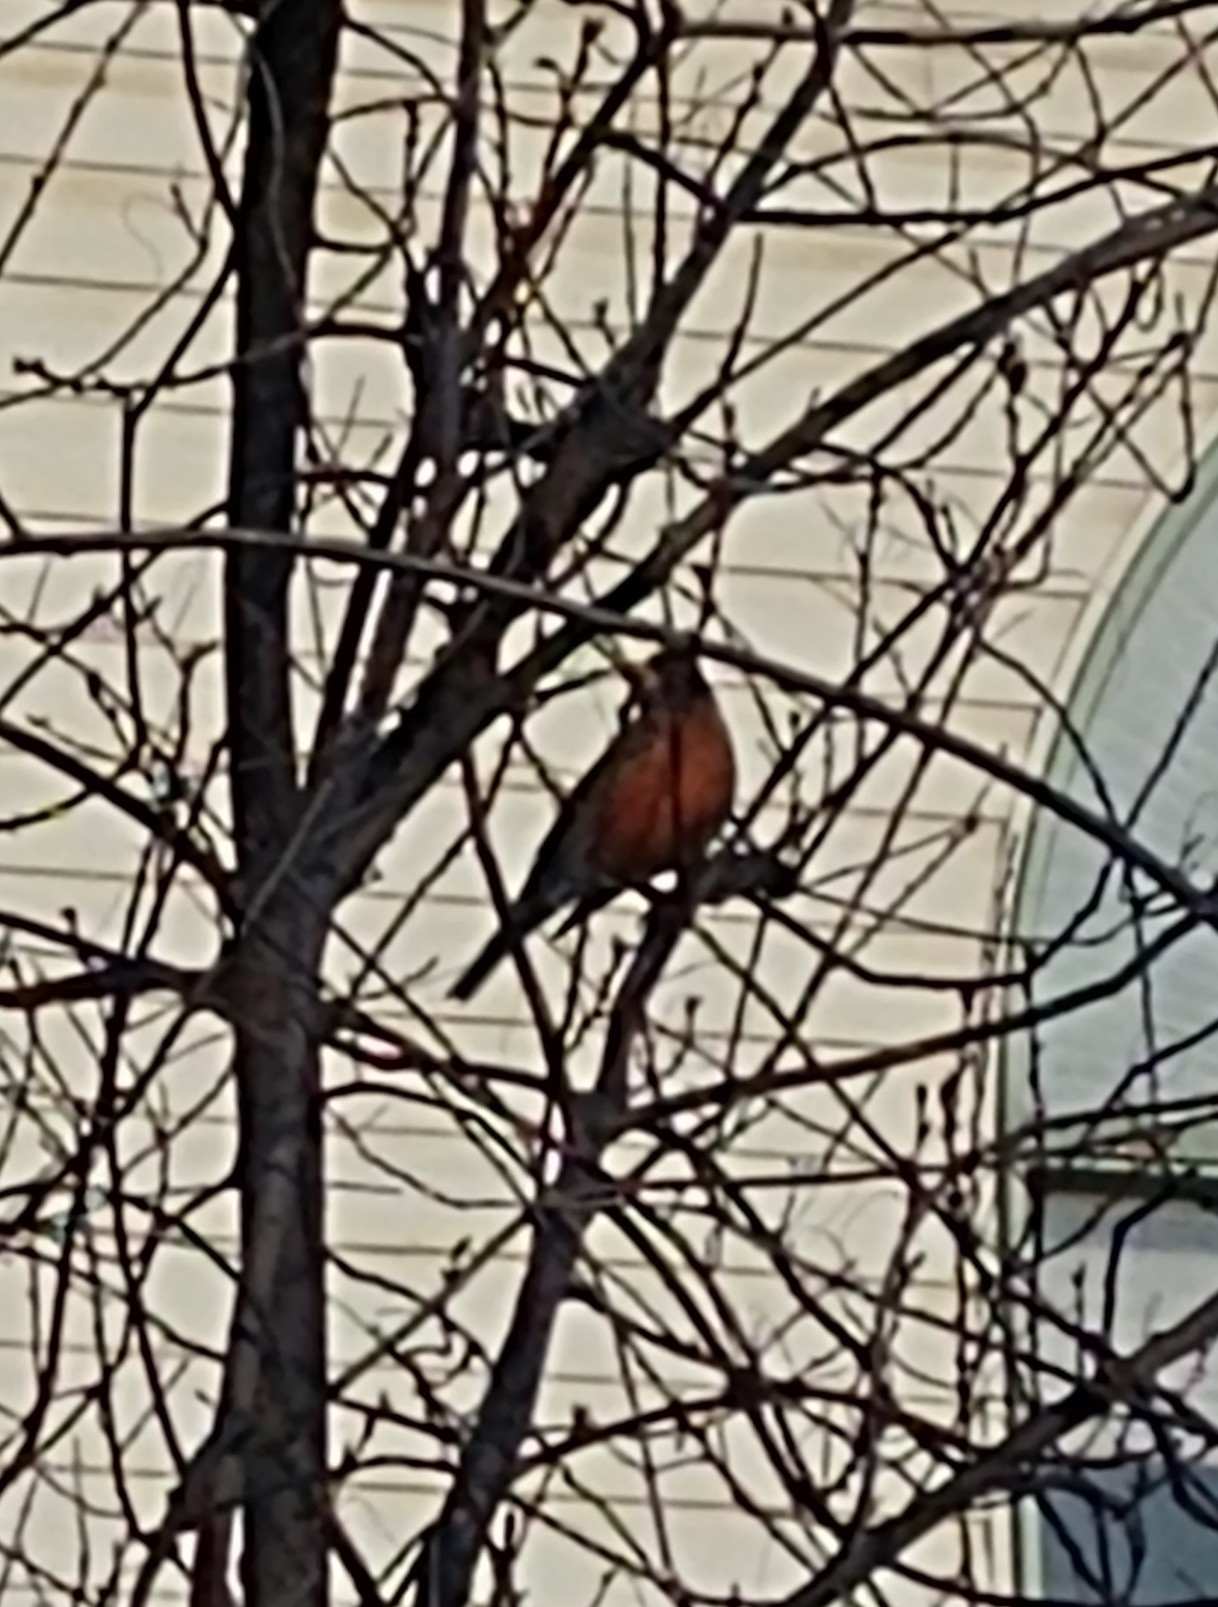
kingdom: Animalia
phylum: Chordata
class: Aves
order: Passeriformes
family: Turdidae
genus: Turdus
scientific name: Turdus migratorius
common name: American robin
